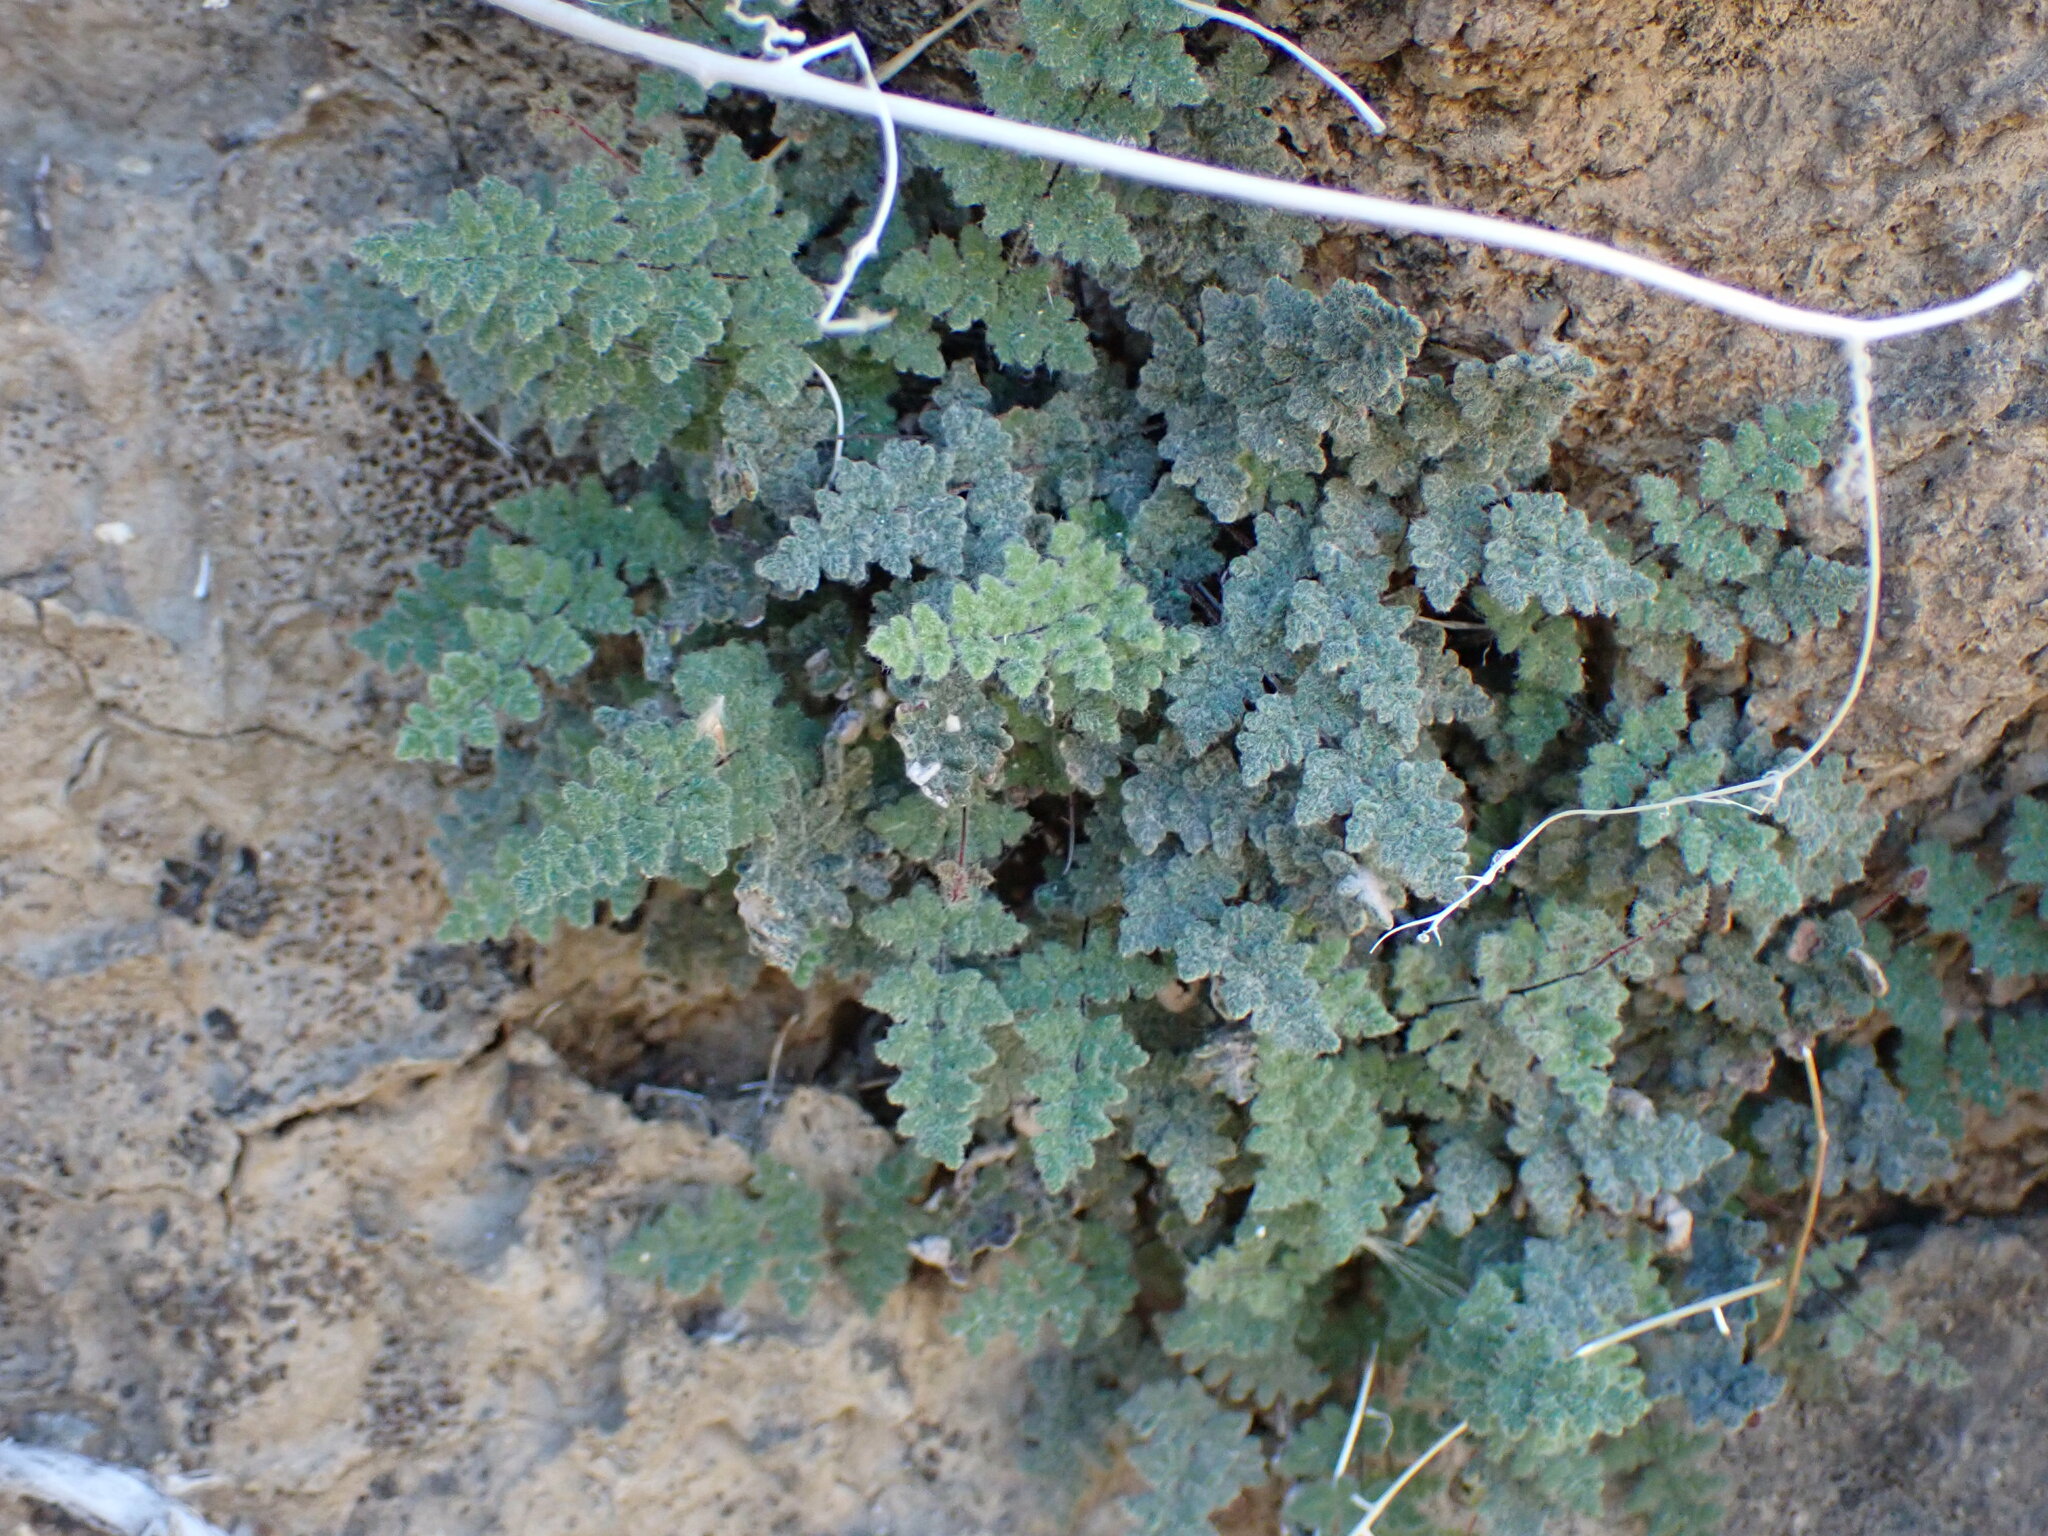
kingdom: Plantae
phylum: Tracheophyta
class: Polypodiopsida
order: Polypodiales
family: Pteridaceae
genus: Myriopteris
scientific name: Myriopteris parryi
